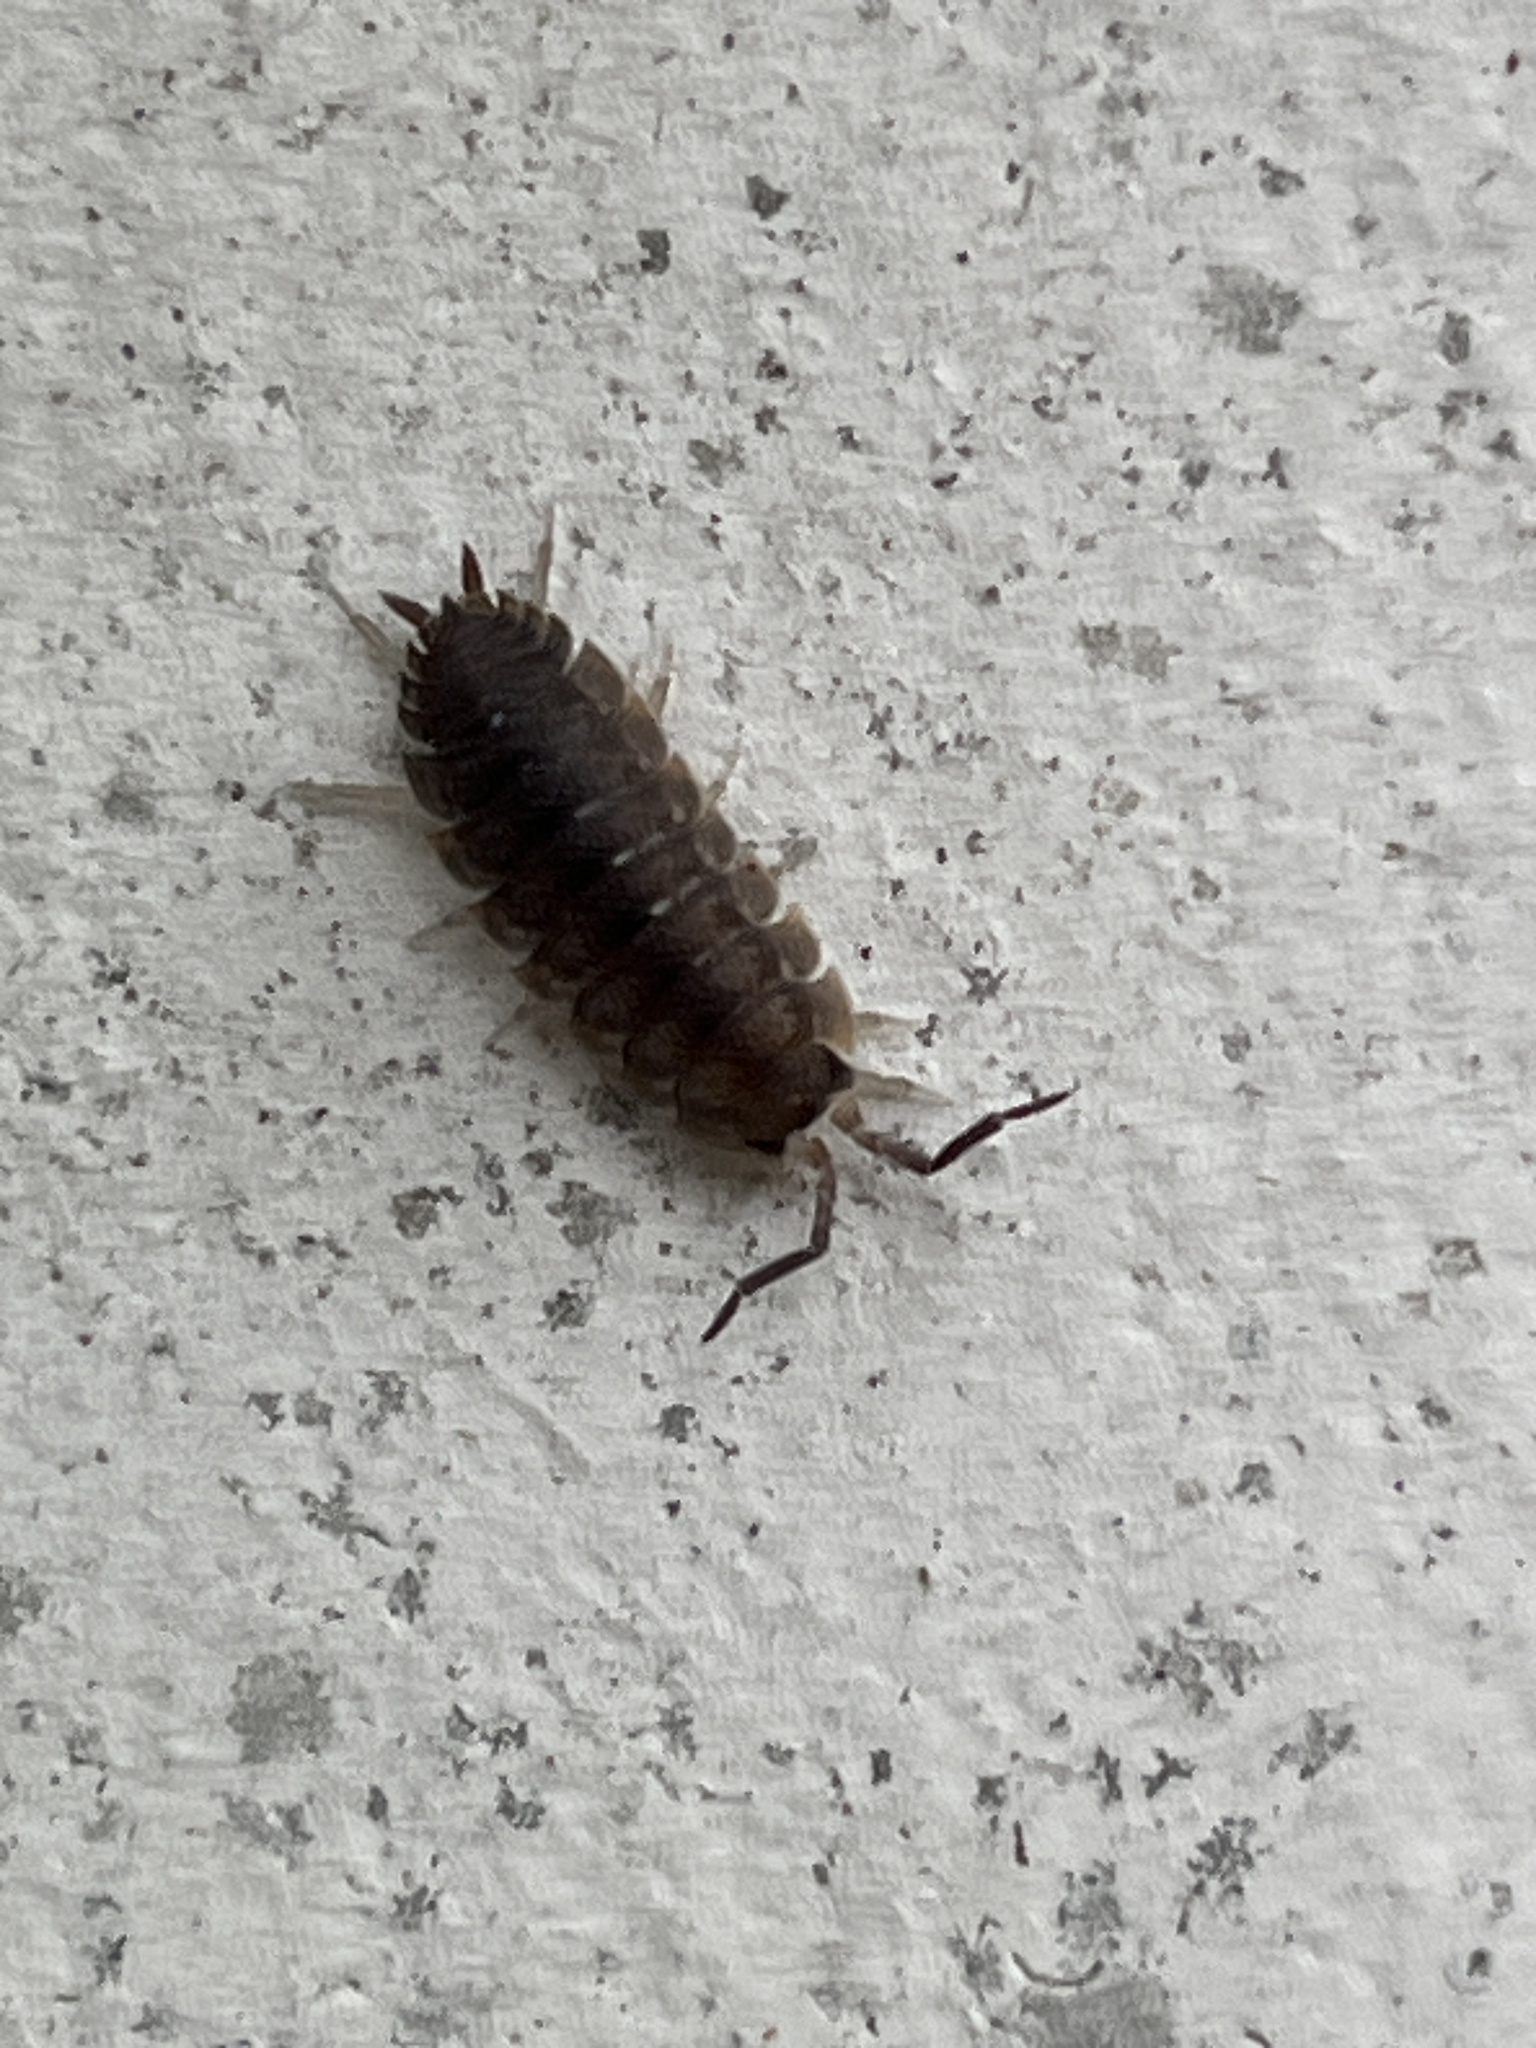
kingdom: Animalia
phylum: Arthropoda
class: Malacostraca
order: Isopoda
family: Porcellionidae
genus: Porcellio
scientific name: Porcellio scaber
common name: Common rough woodlouse
